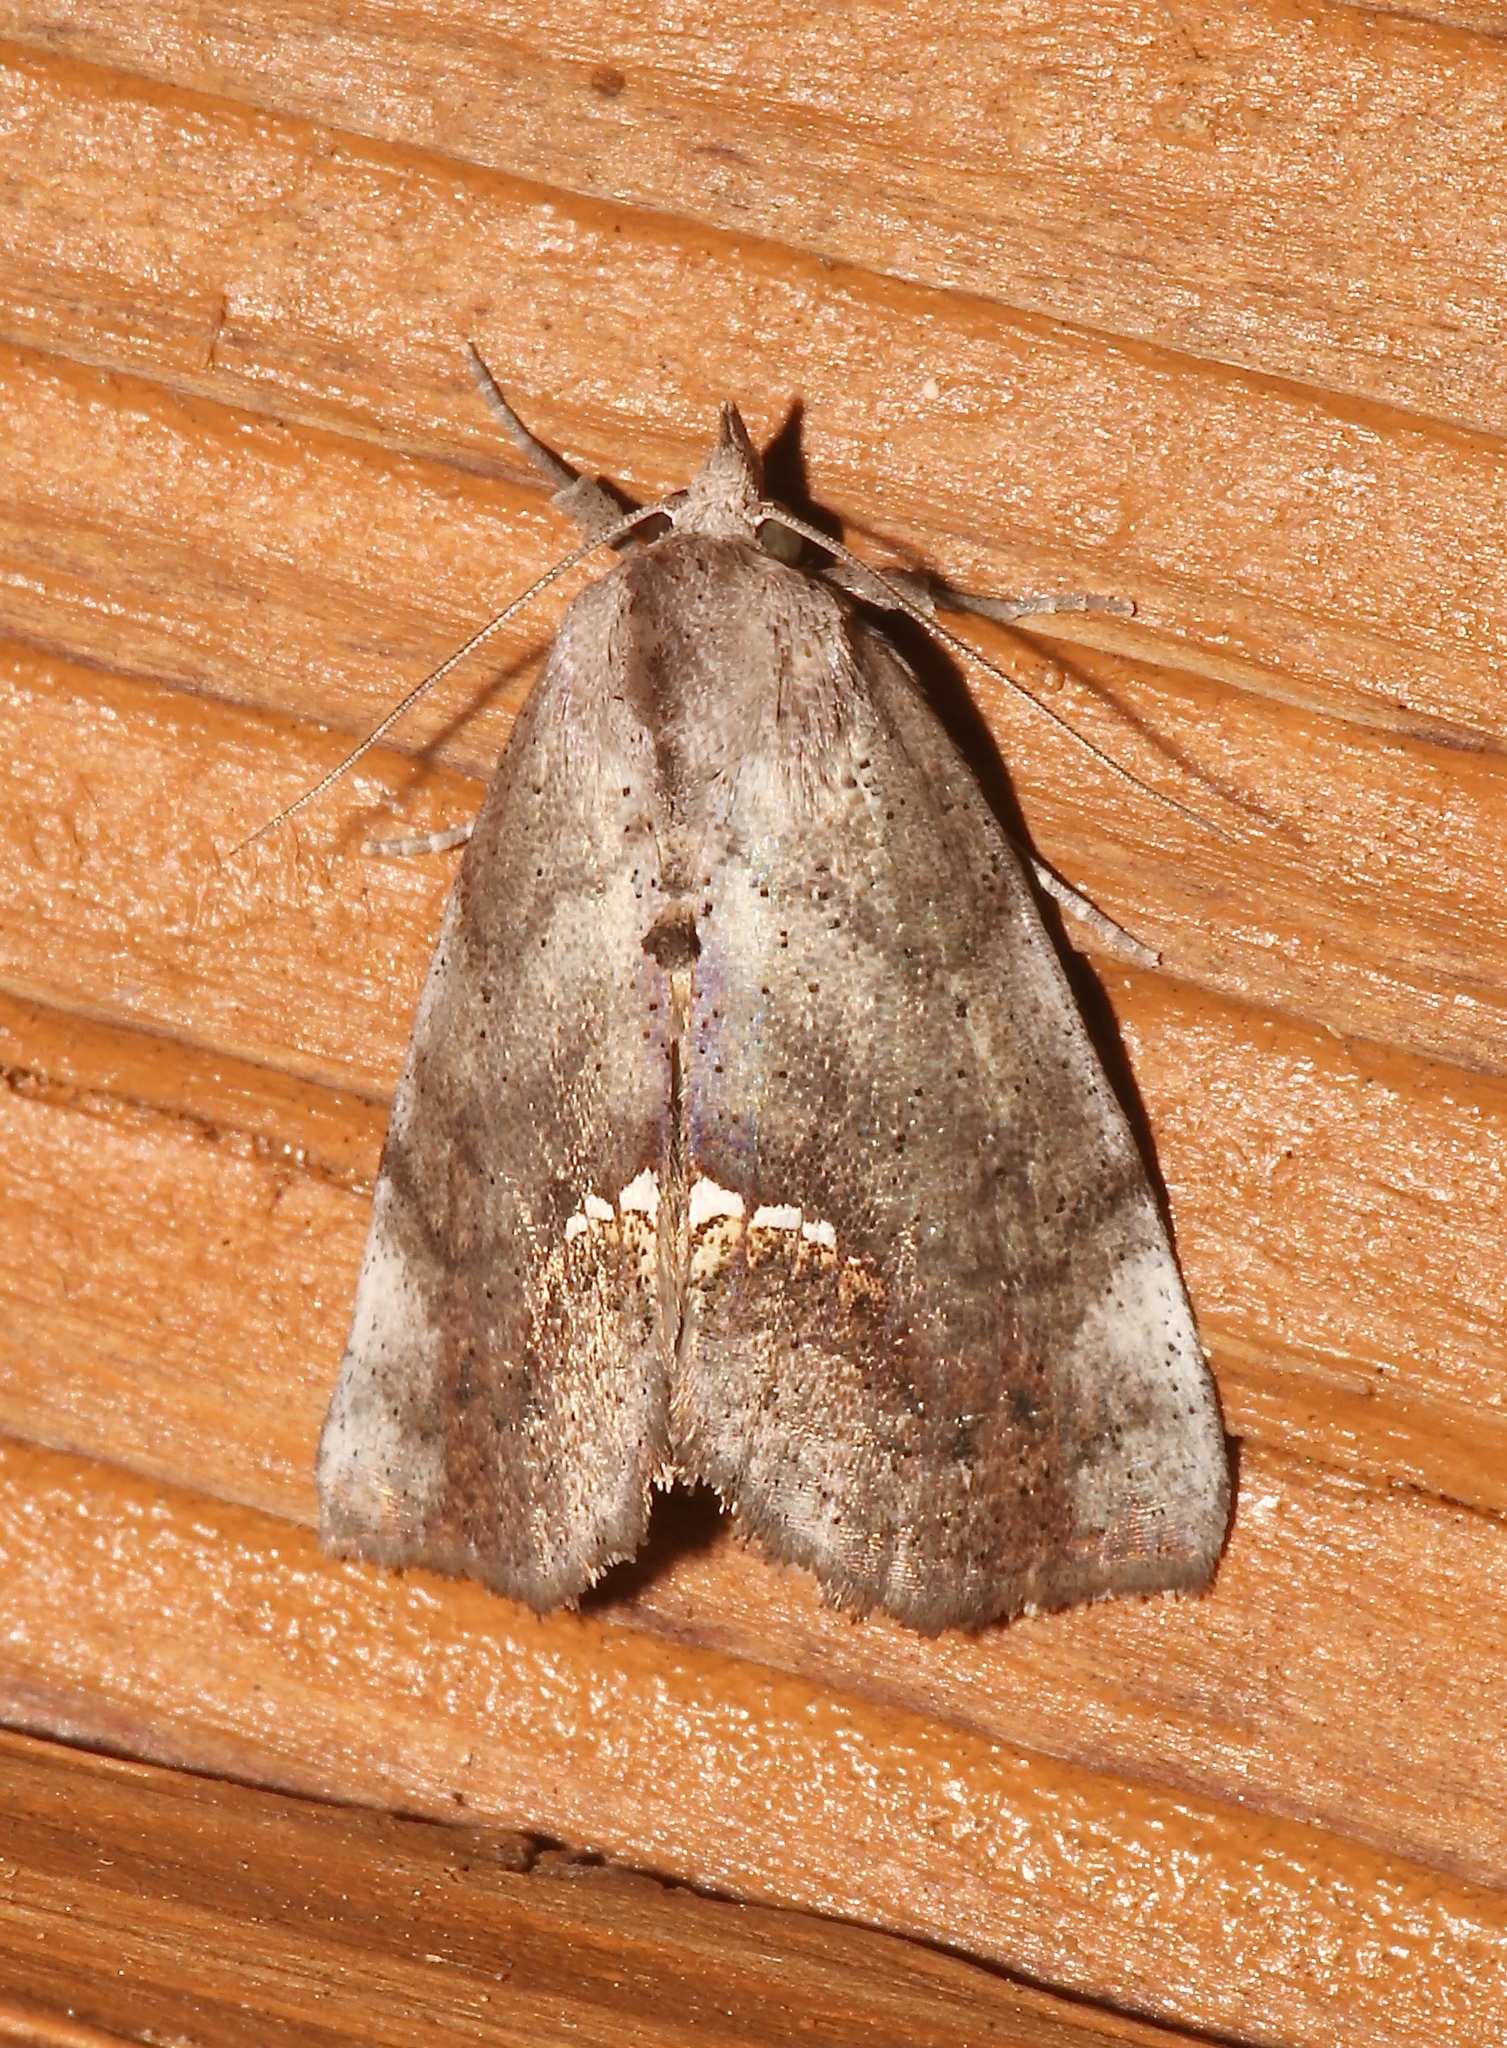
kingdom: Animalia
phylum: Arthropoda
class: Insecta
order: Lepidoptera
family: Erebidae
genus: Hypsoropha
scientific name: Hypsoropha hormos
